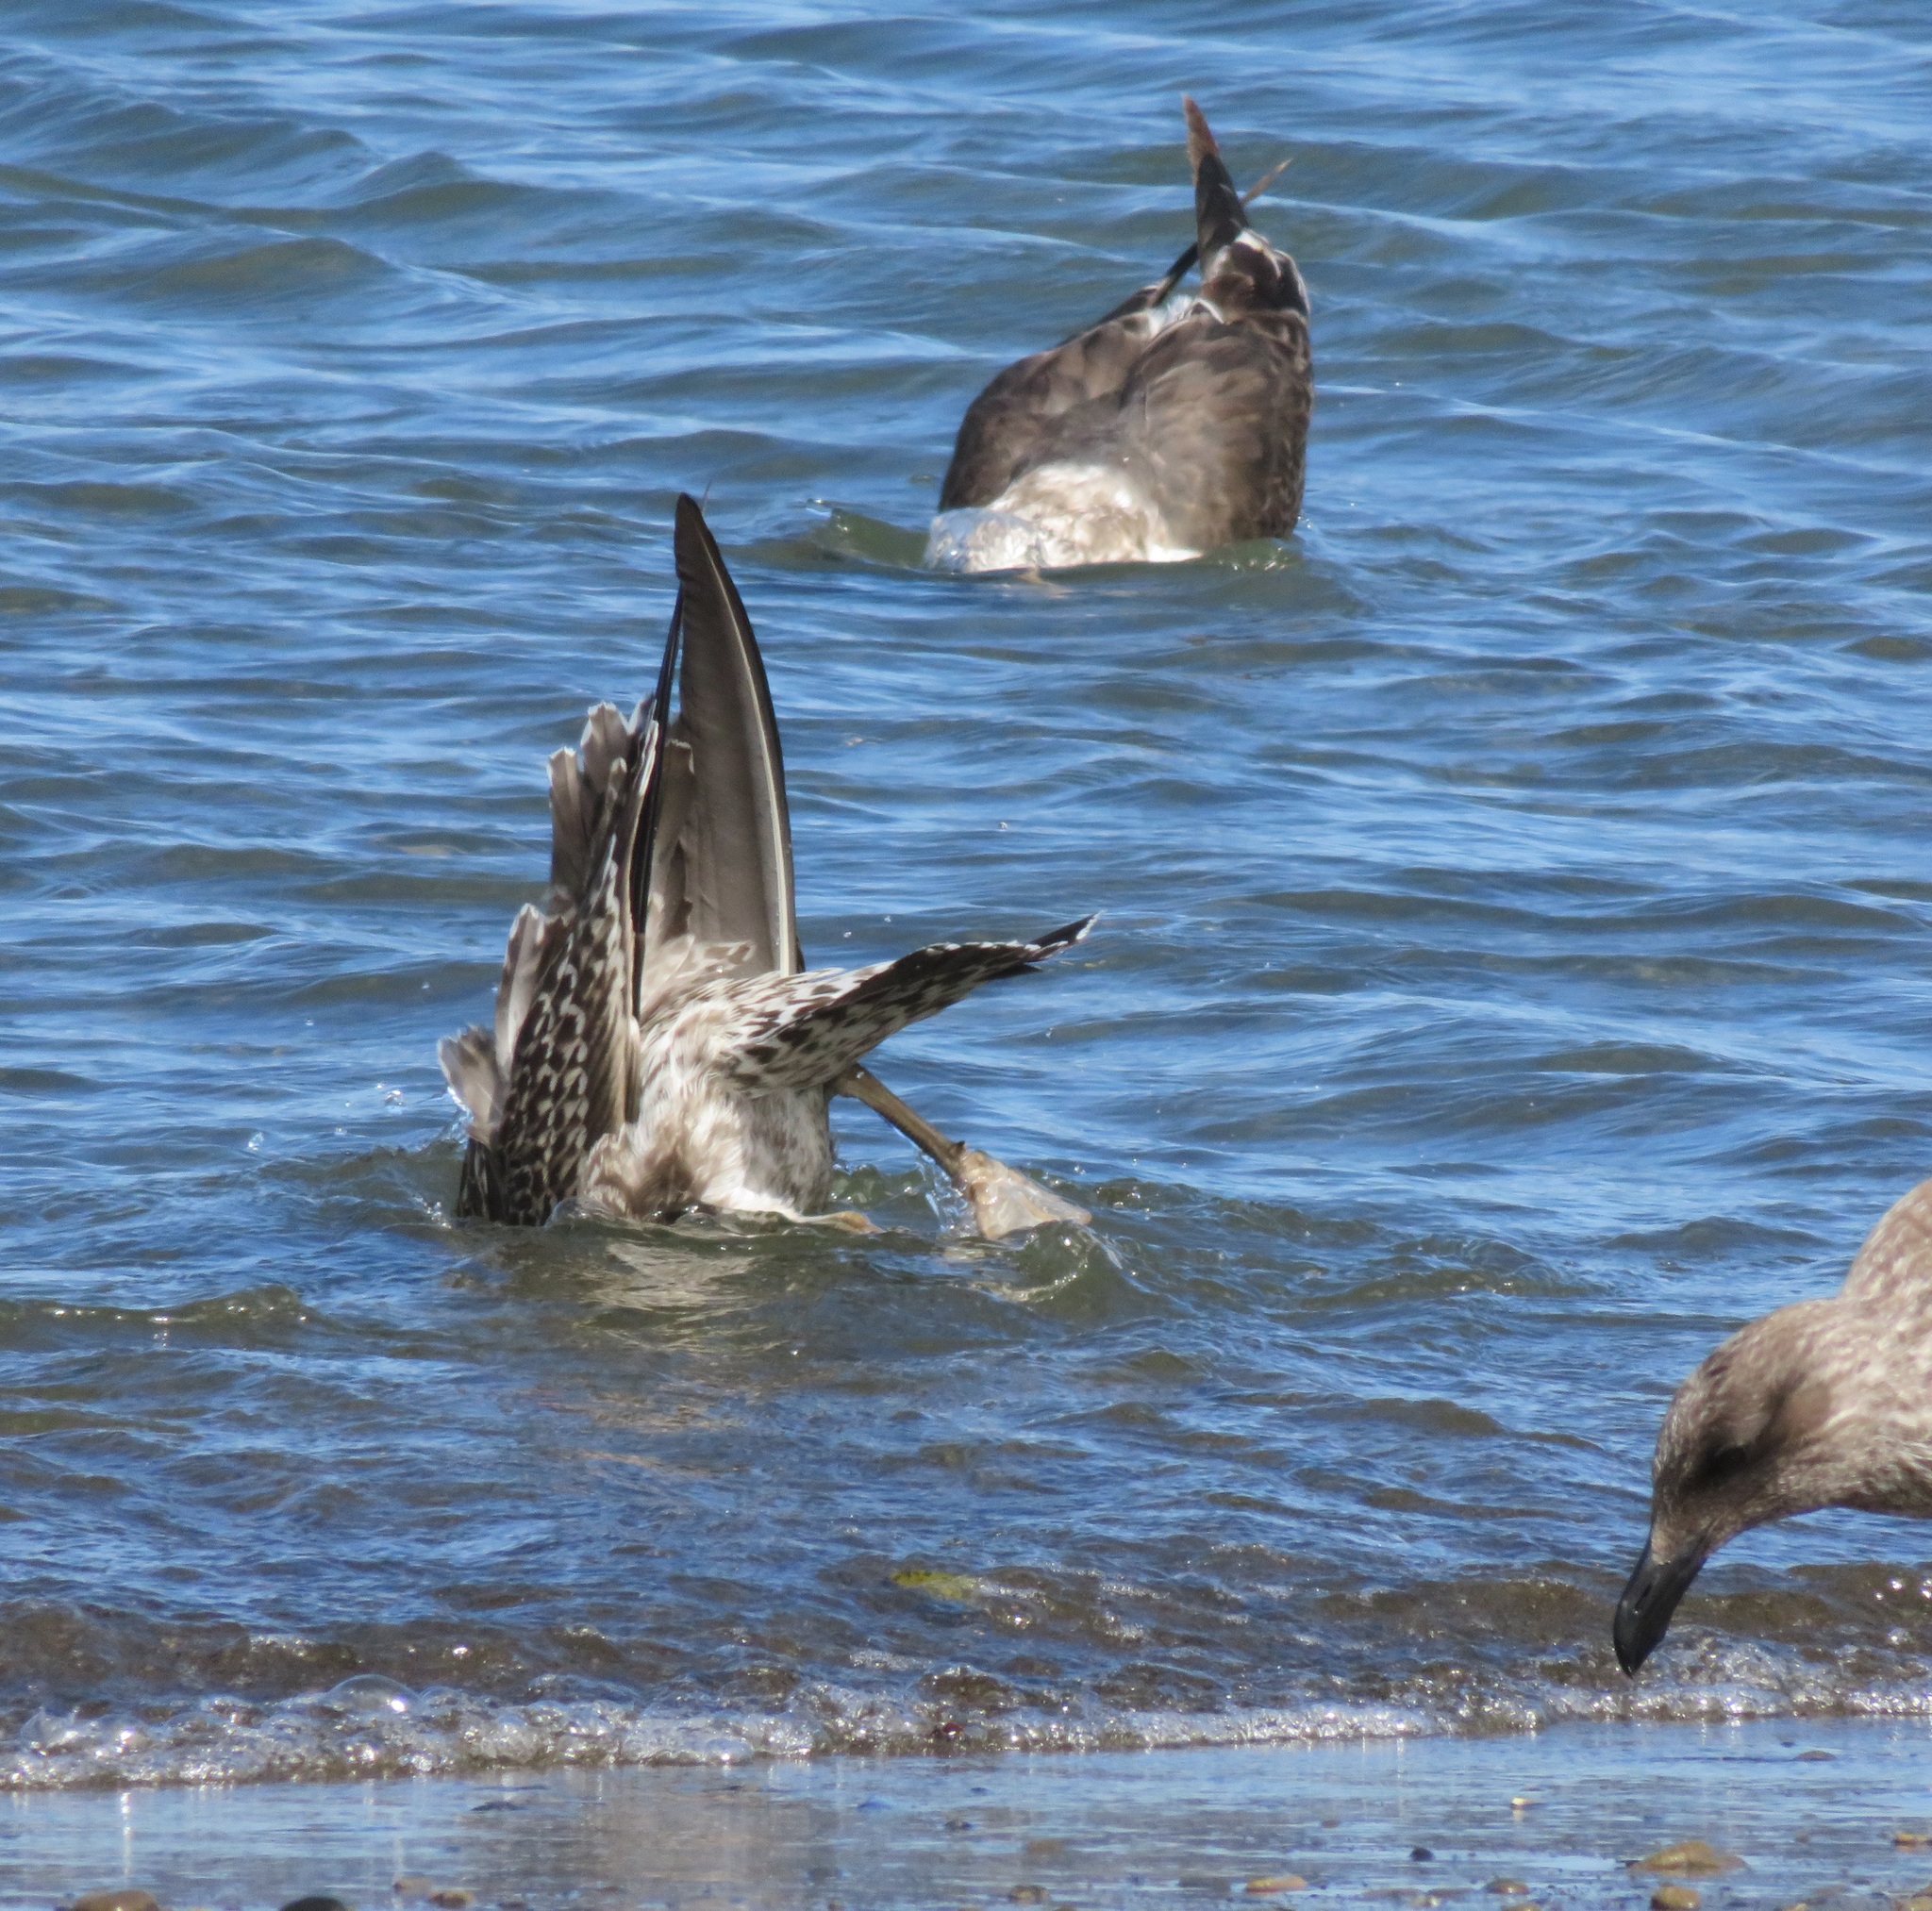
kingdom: Animalia
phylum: Chordata
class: Aves
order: Charadriiformes
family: Laridae
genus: Larus
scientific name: Larus dominicanus
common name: Kelp gull
